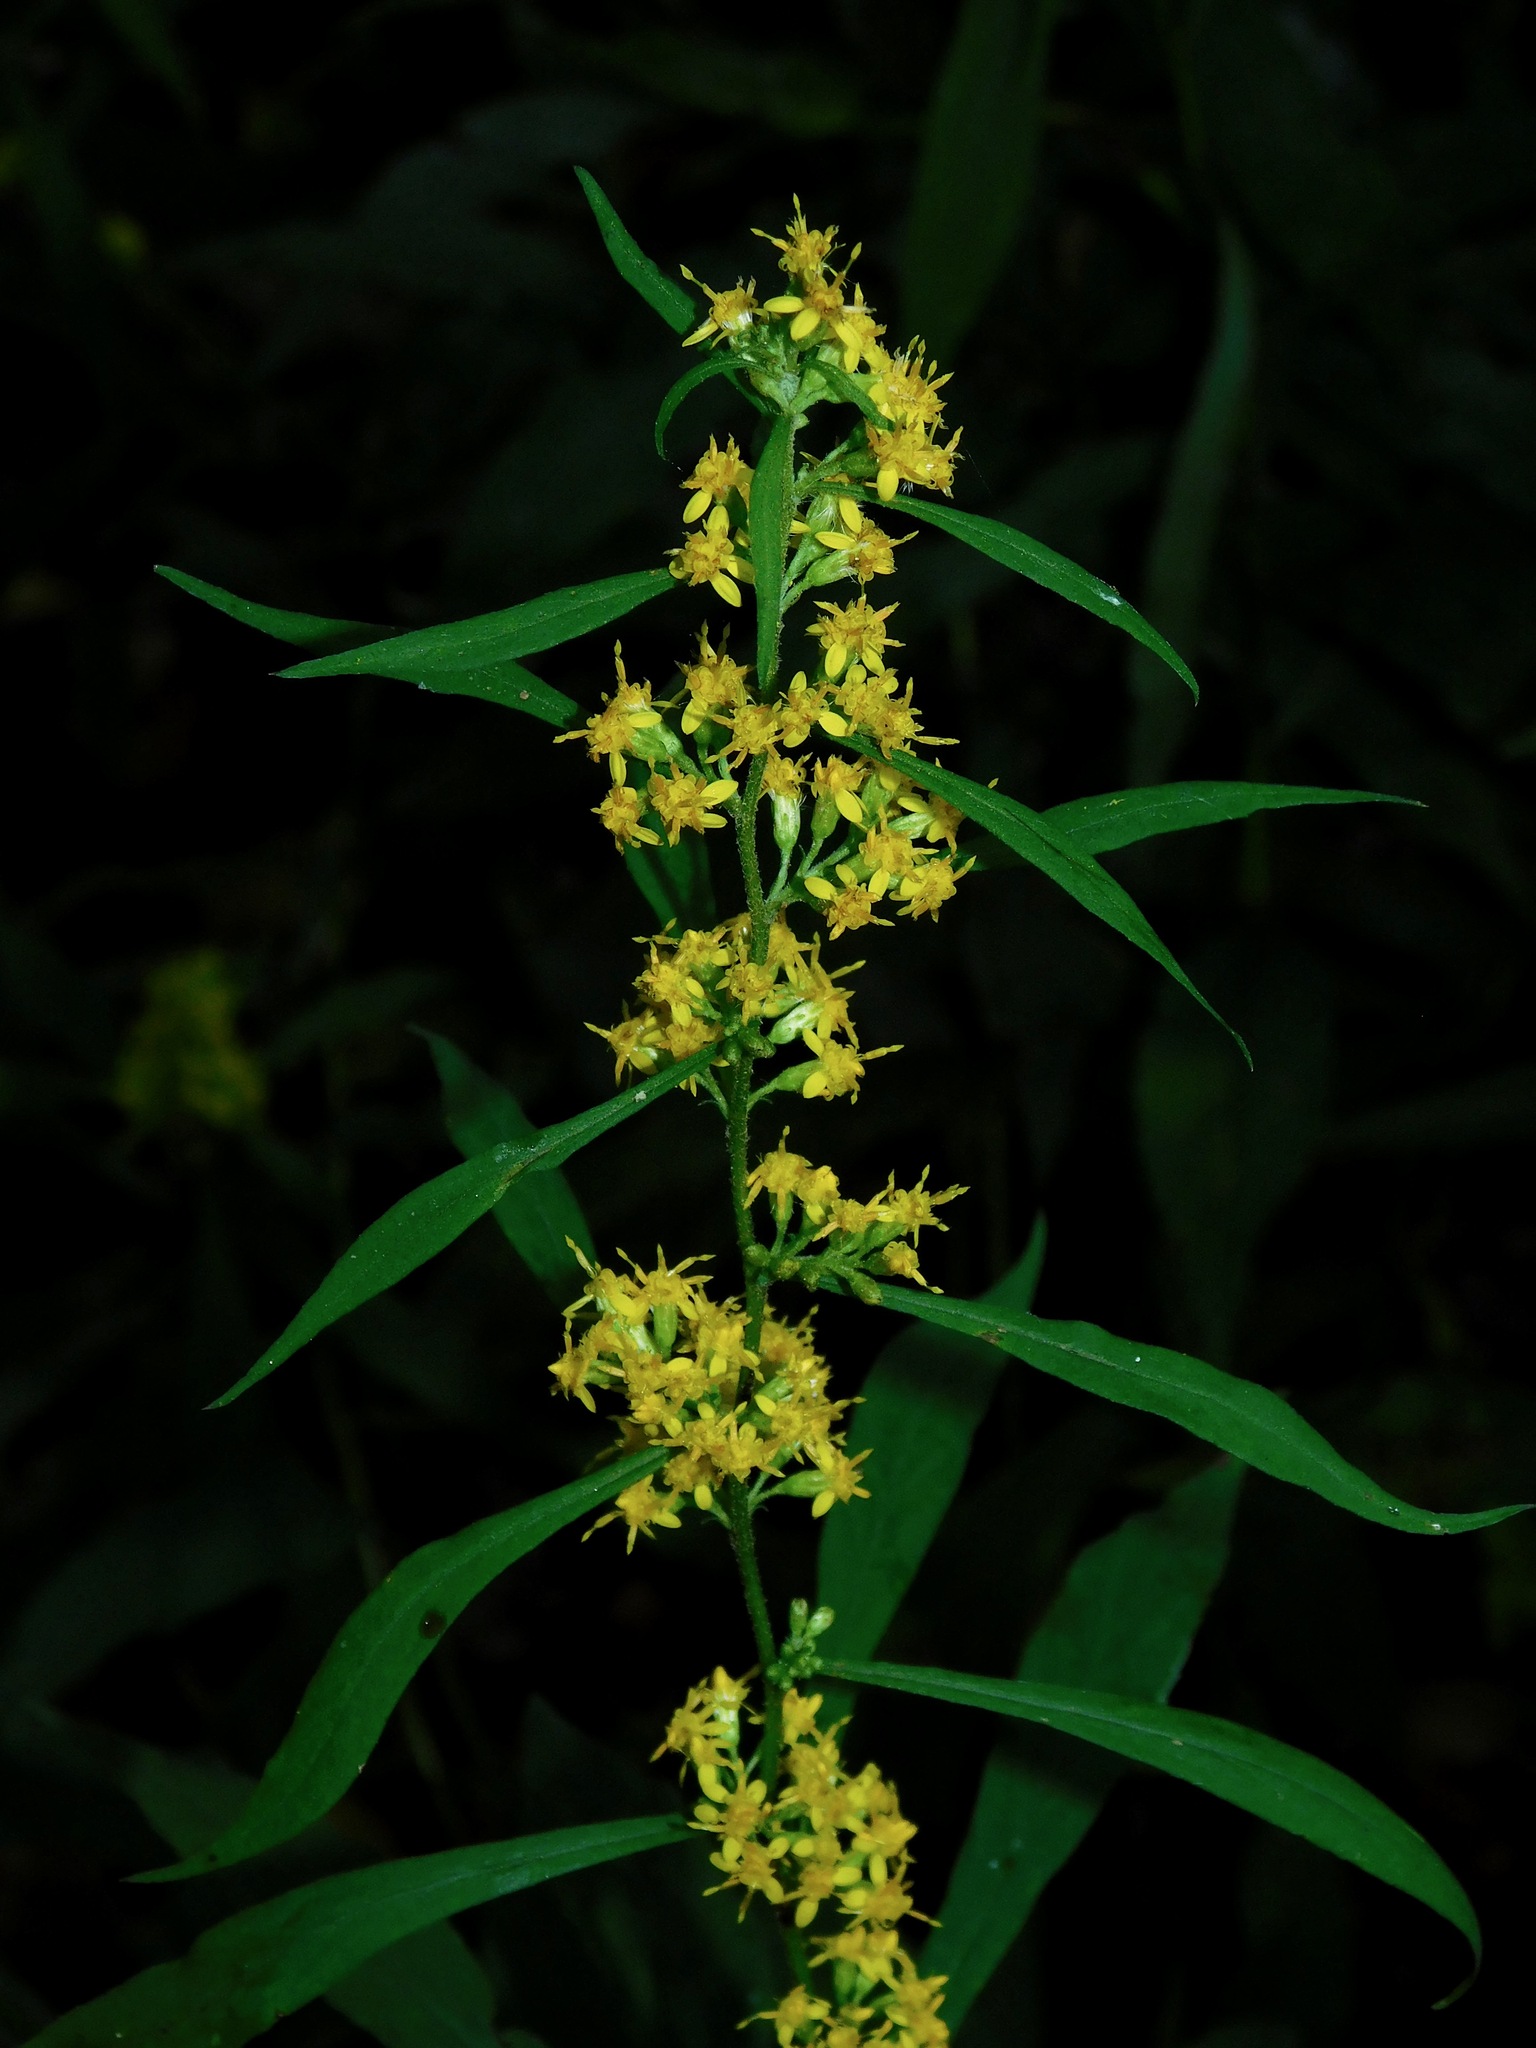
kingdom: Plantae
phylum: Tracheophyta
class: Magnoliopsida
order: Asterales
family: Asteraceae
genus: Solidago
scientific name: Solidago caesia
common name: Woodland goldenrod
